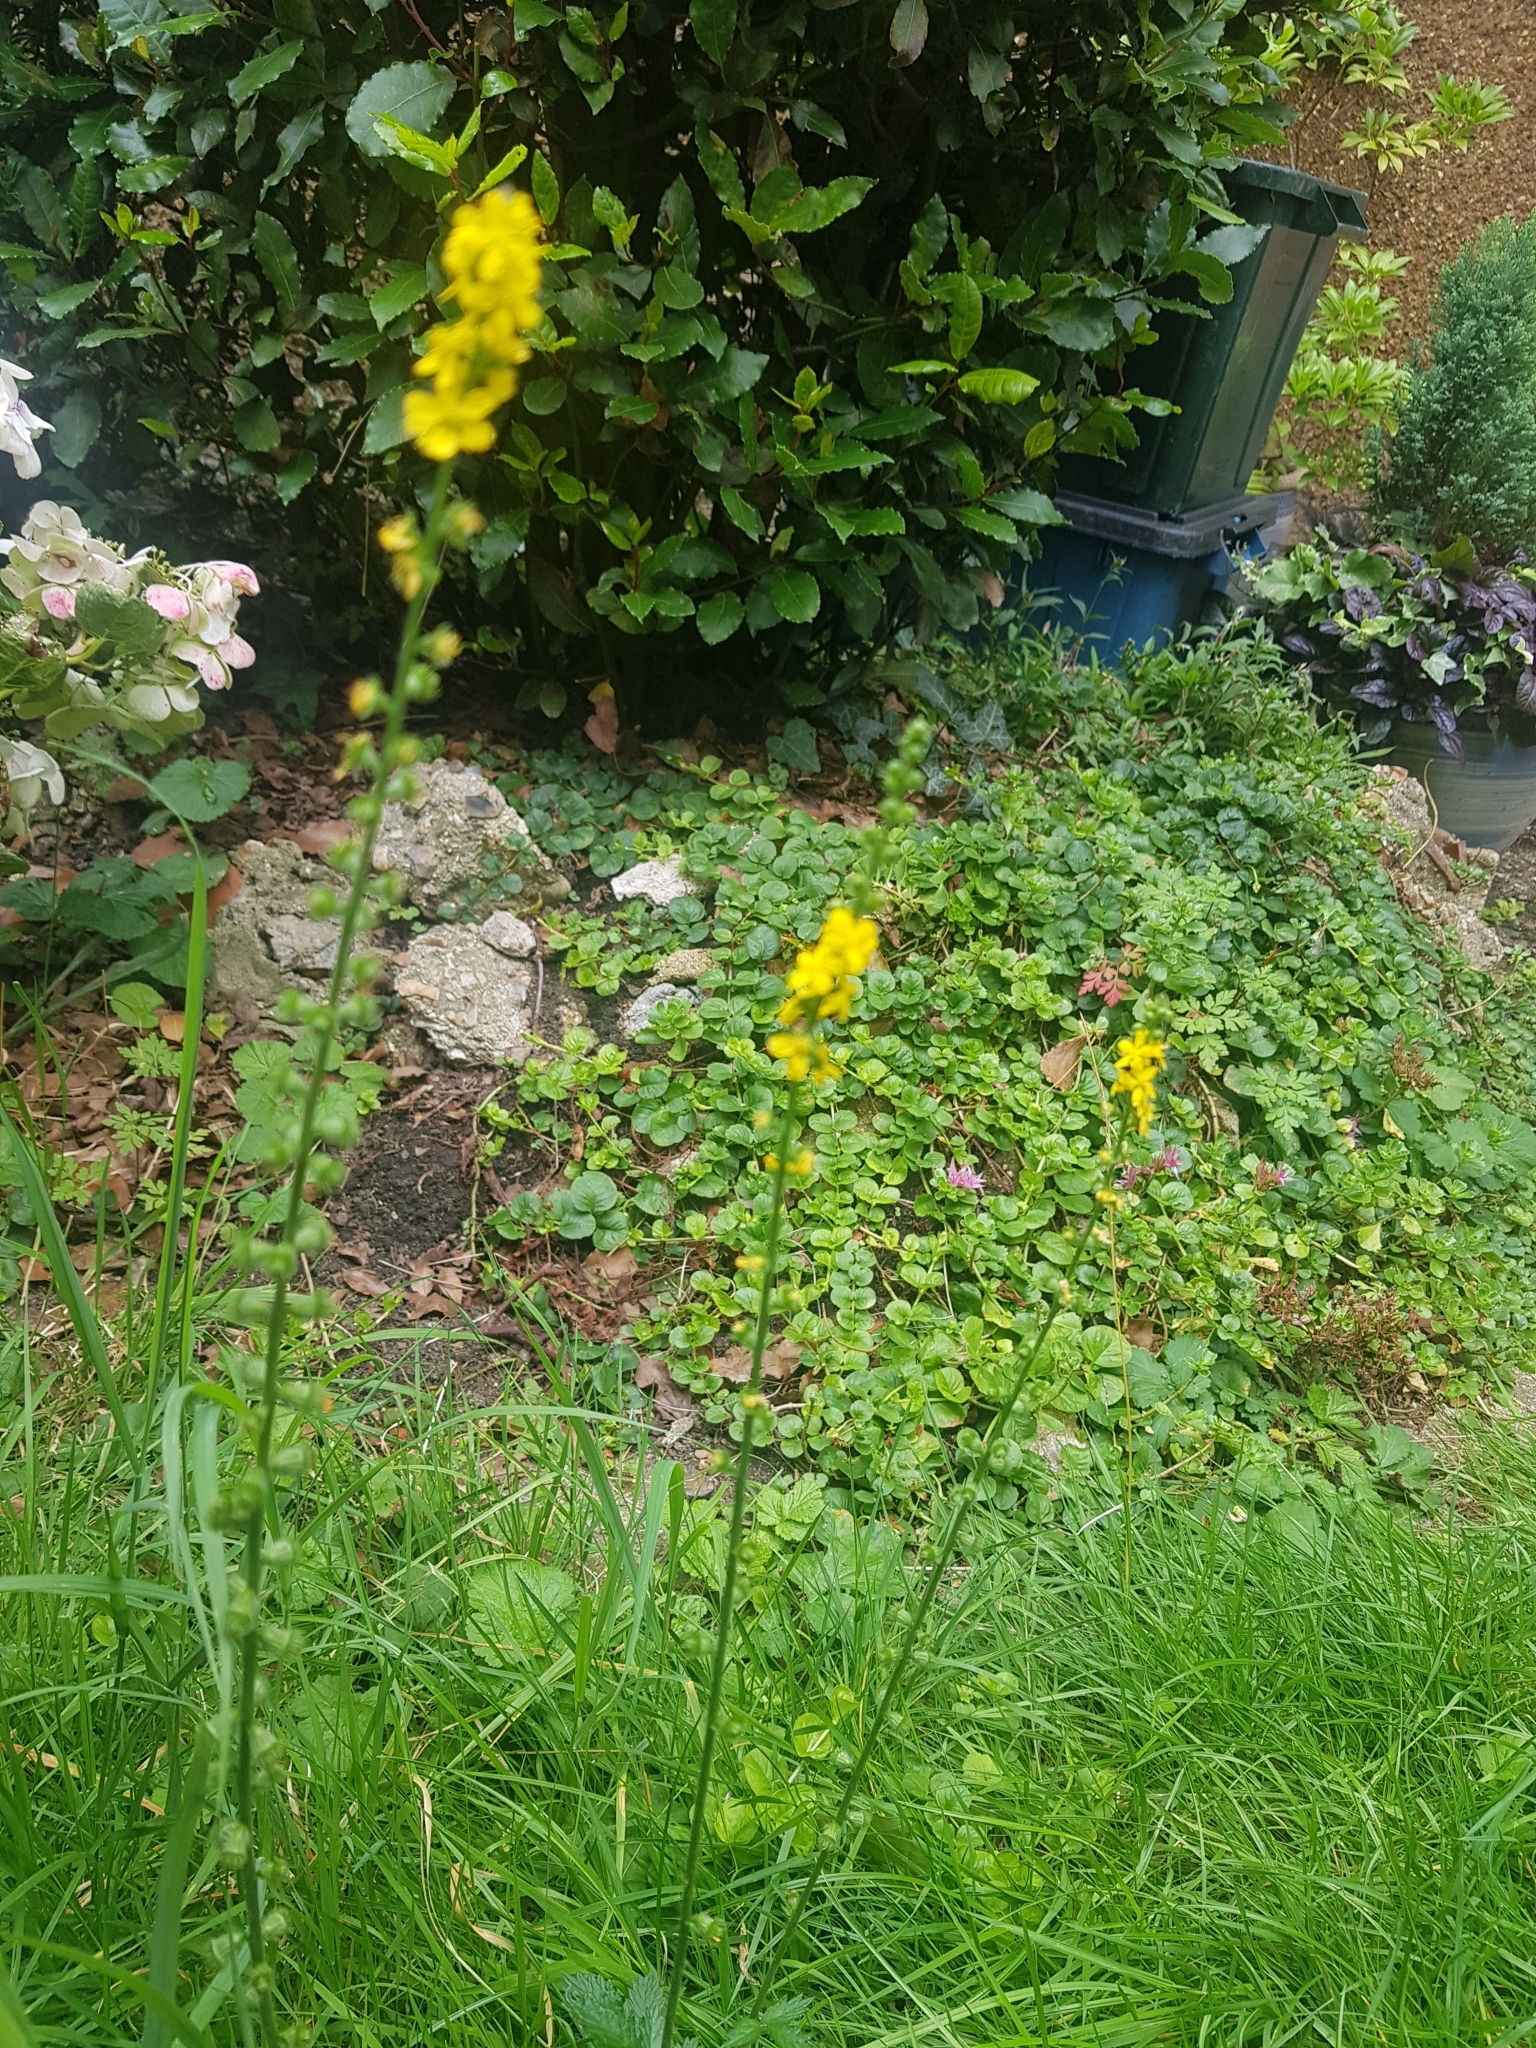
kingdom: Plantae
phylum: Tracheophyta
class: Magnoliopsida
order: Rosales
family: Rosaceae
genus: Agrimonia
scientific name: Agrimonia eupatoria
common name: Agrimony
